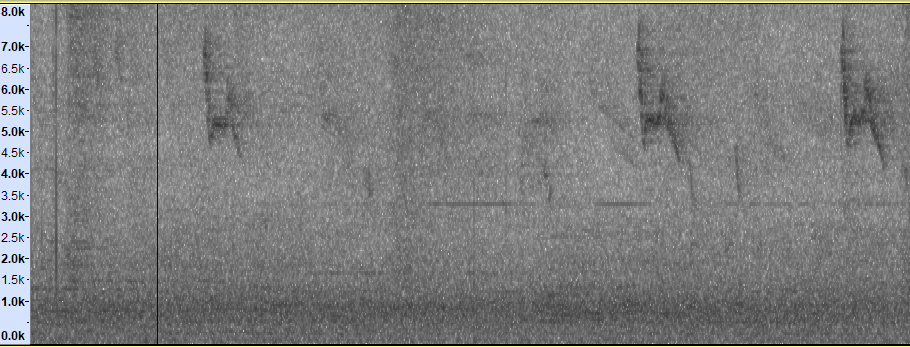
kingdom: Animalia
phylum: Chordata
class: Aves
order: Passeriformes
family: Zosteropidae
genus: Zosterops
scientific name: Zosterops simplex
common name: Swinhoe's white-eye
